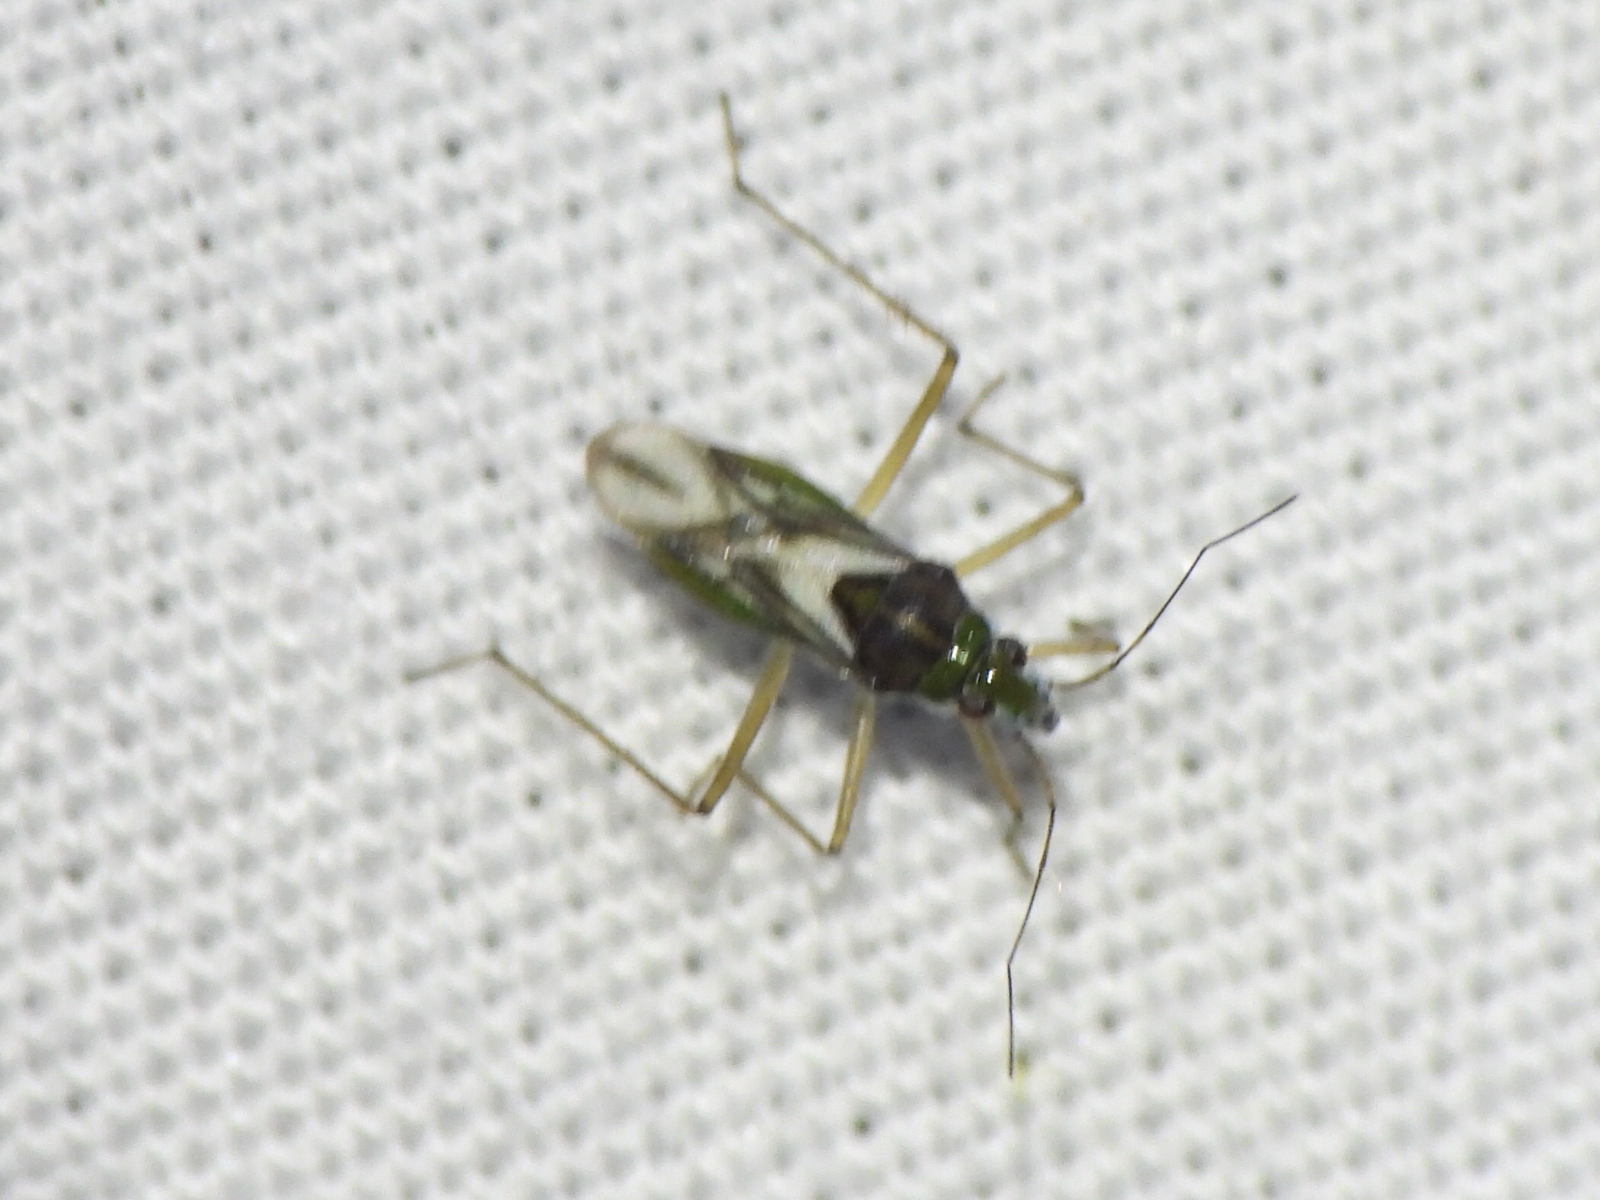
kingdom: Animalia
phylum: Arthropoda
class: Insecta
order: Hemiptera
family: Mesoveliidae
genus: Mesovelia
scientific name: Mesovelia mulsanti
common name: Water treaders
